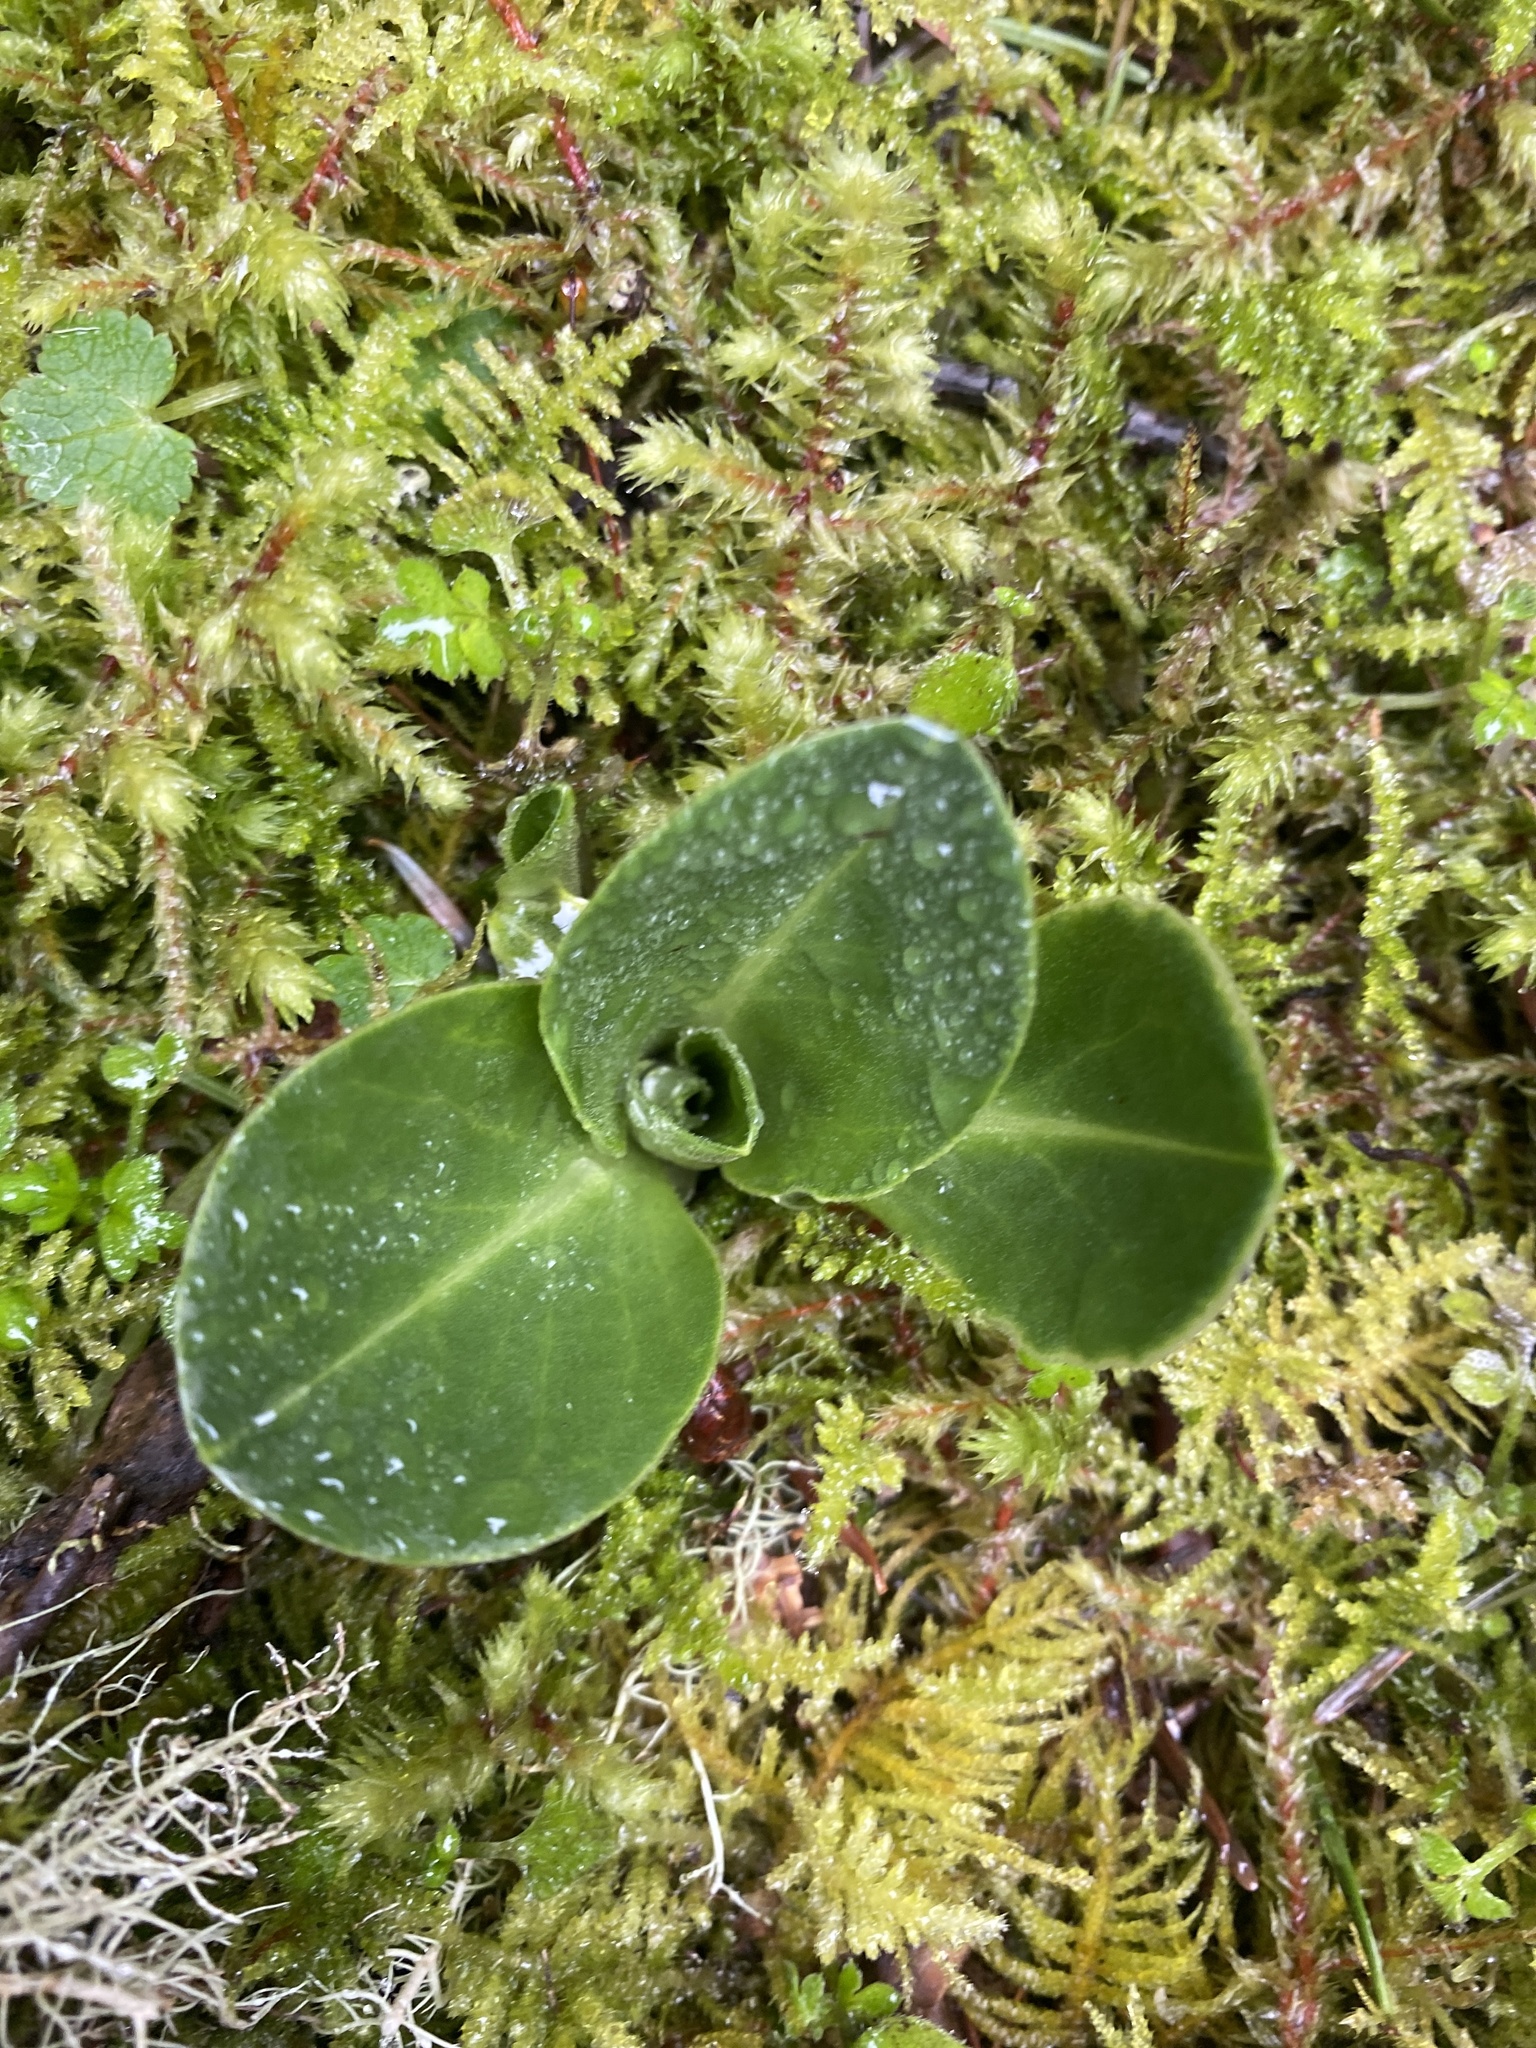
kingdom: Plantae
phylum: Tracheophyta
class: Magnoliopsida
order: Ericales
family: Primulaceae
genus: Dodecatheon
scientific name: Dodecatheon hendersonii
